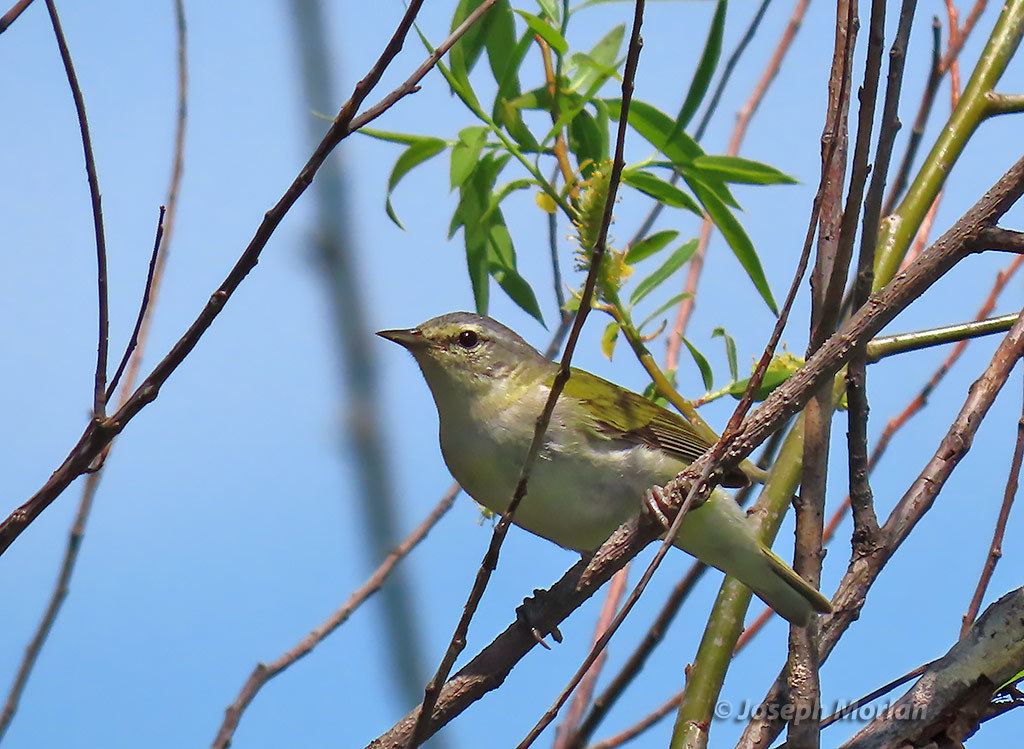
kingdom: Animalia
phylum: Chordata
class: Aves
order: Passeriformes
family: Parulidae
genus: Leiothlypis
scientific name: Leiothlypis peregrina
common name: Tennessee warbler
